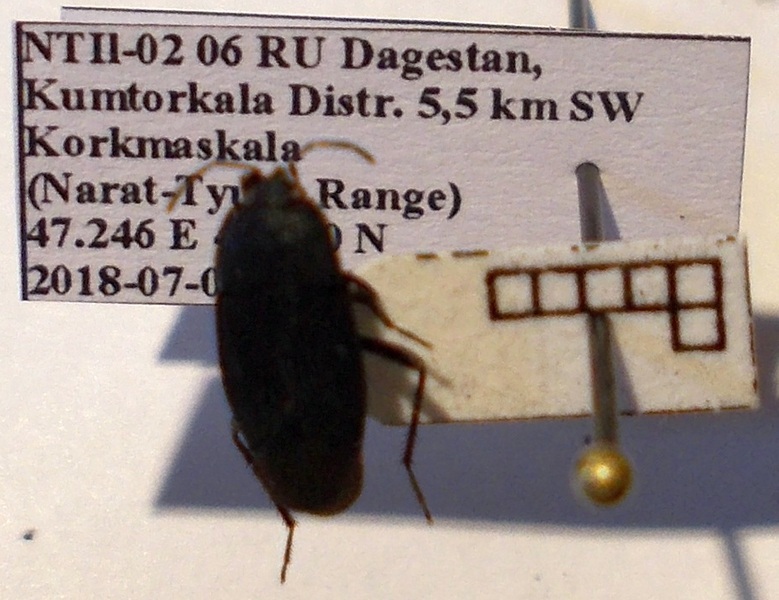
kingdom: Animalia
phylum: Arthropoda
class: Insecta
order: Hemiptera
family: Rhyparochromidae
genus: Aellopus
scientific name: Aellopus atratus
